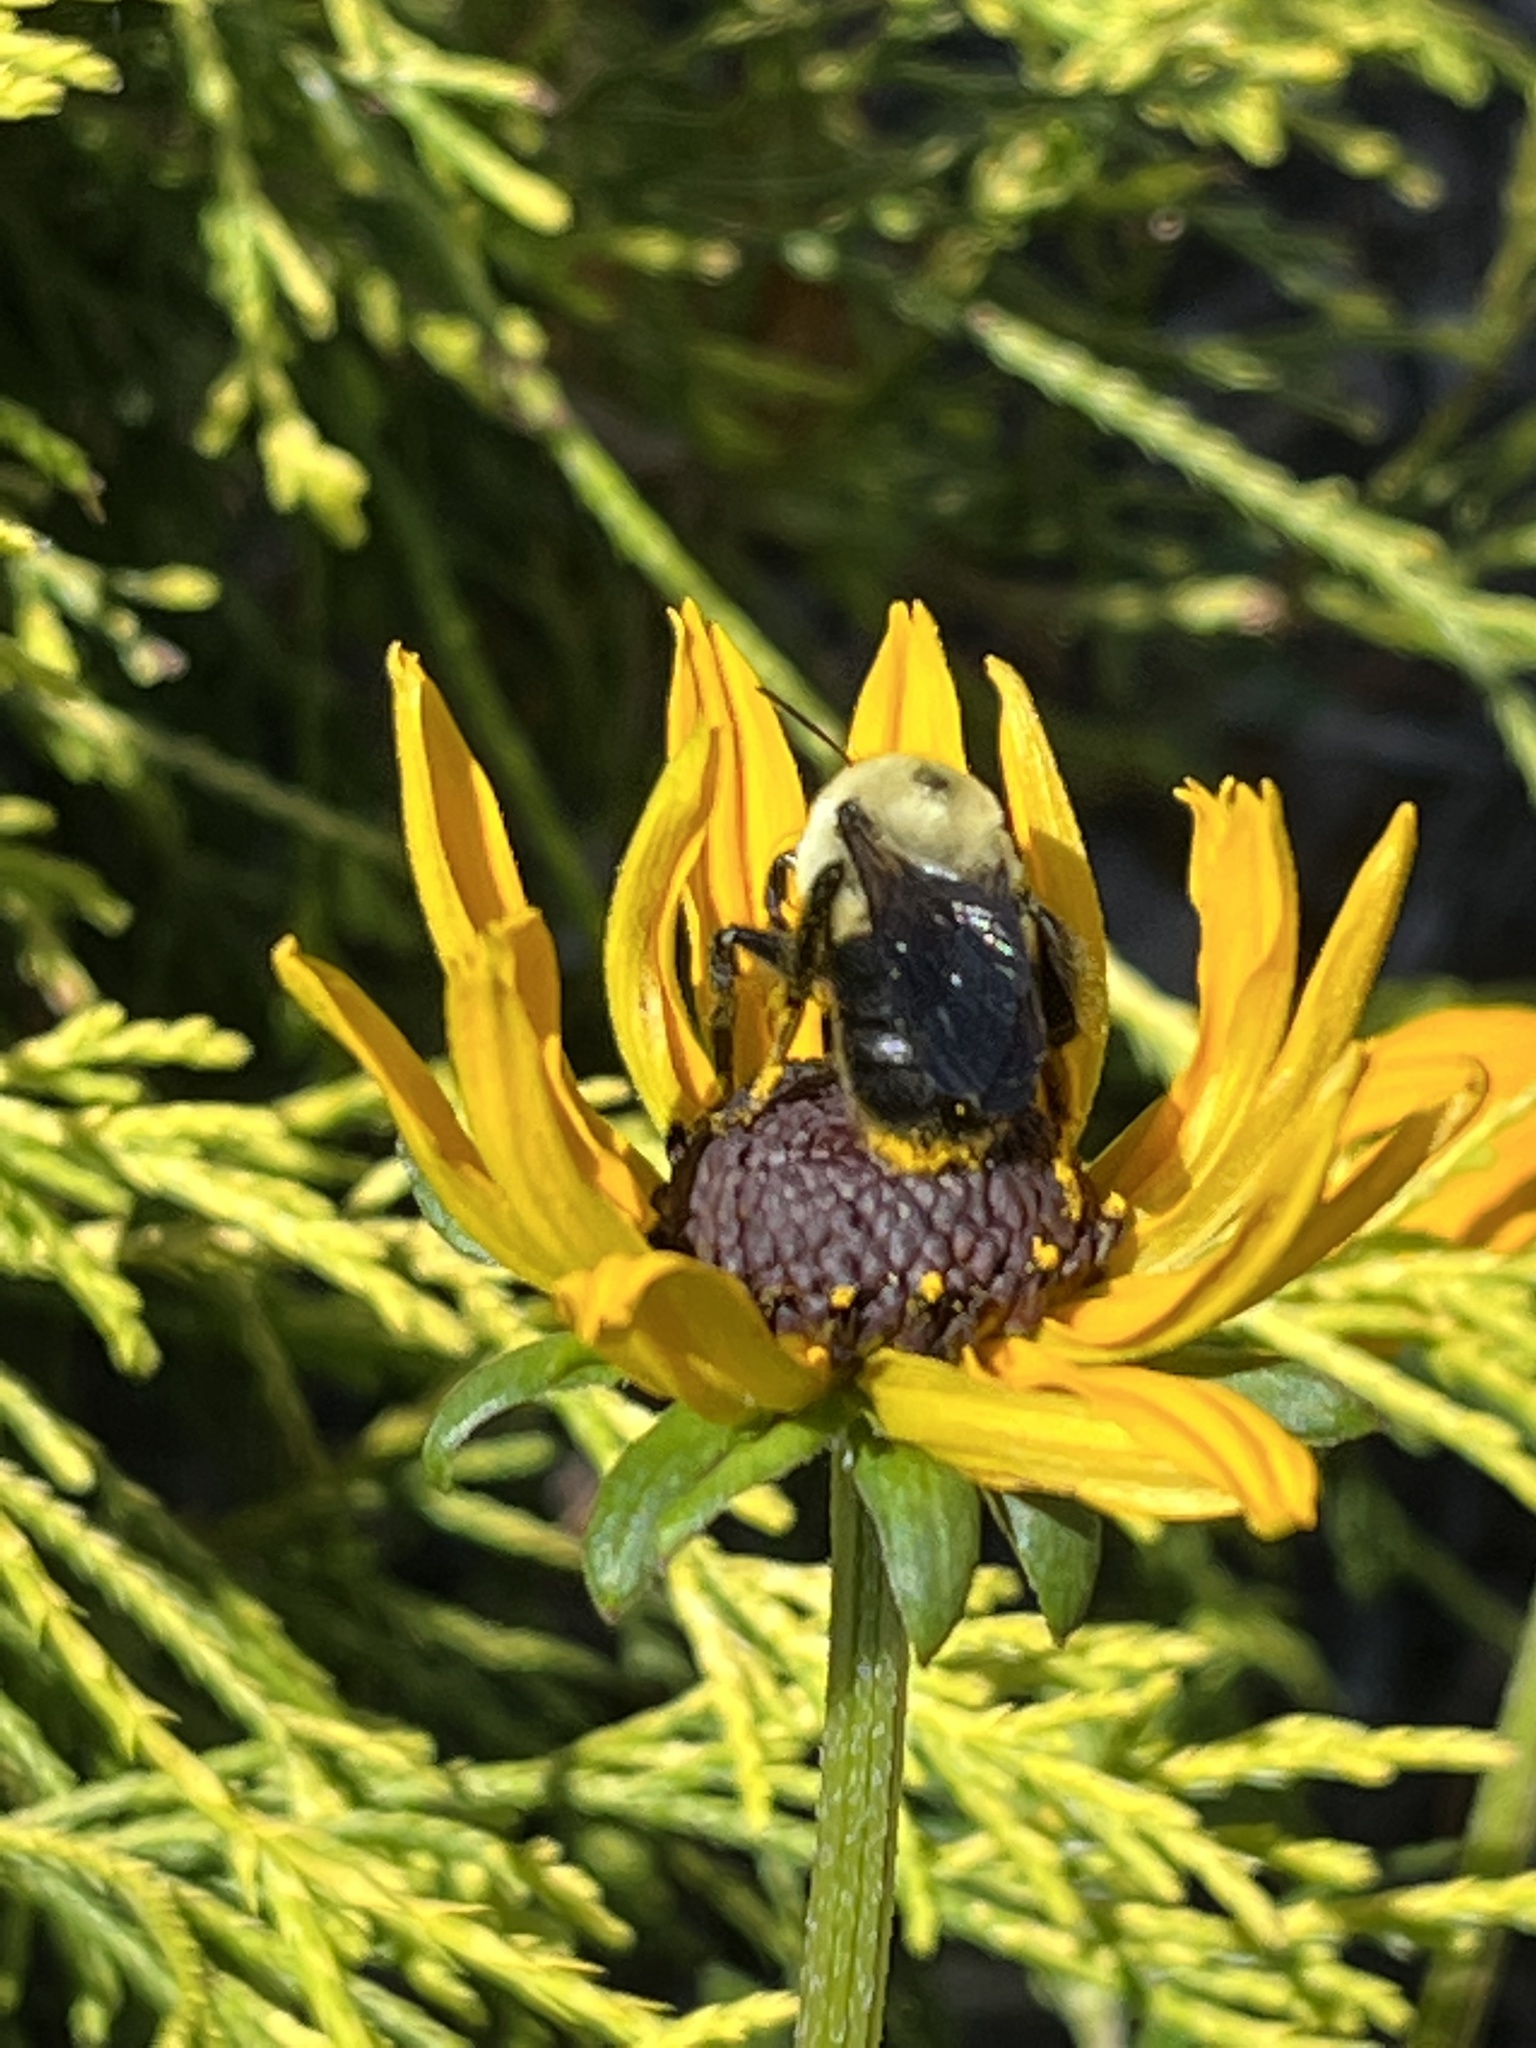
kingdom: Animalia
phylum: Arthropoda
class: Insecta
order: Hymenoptera
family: Apidae
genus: Bombus
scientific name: Bombus griseocollis
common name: Brown-belted bumble bee
